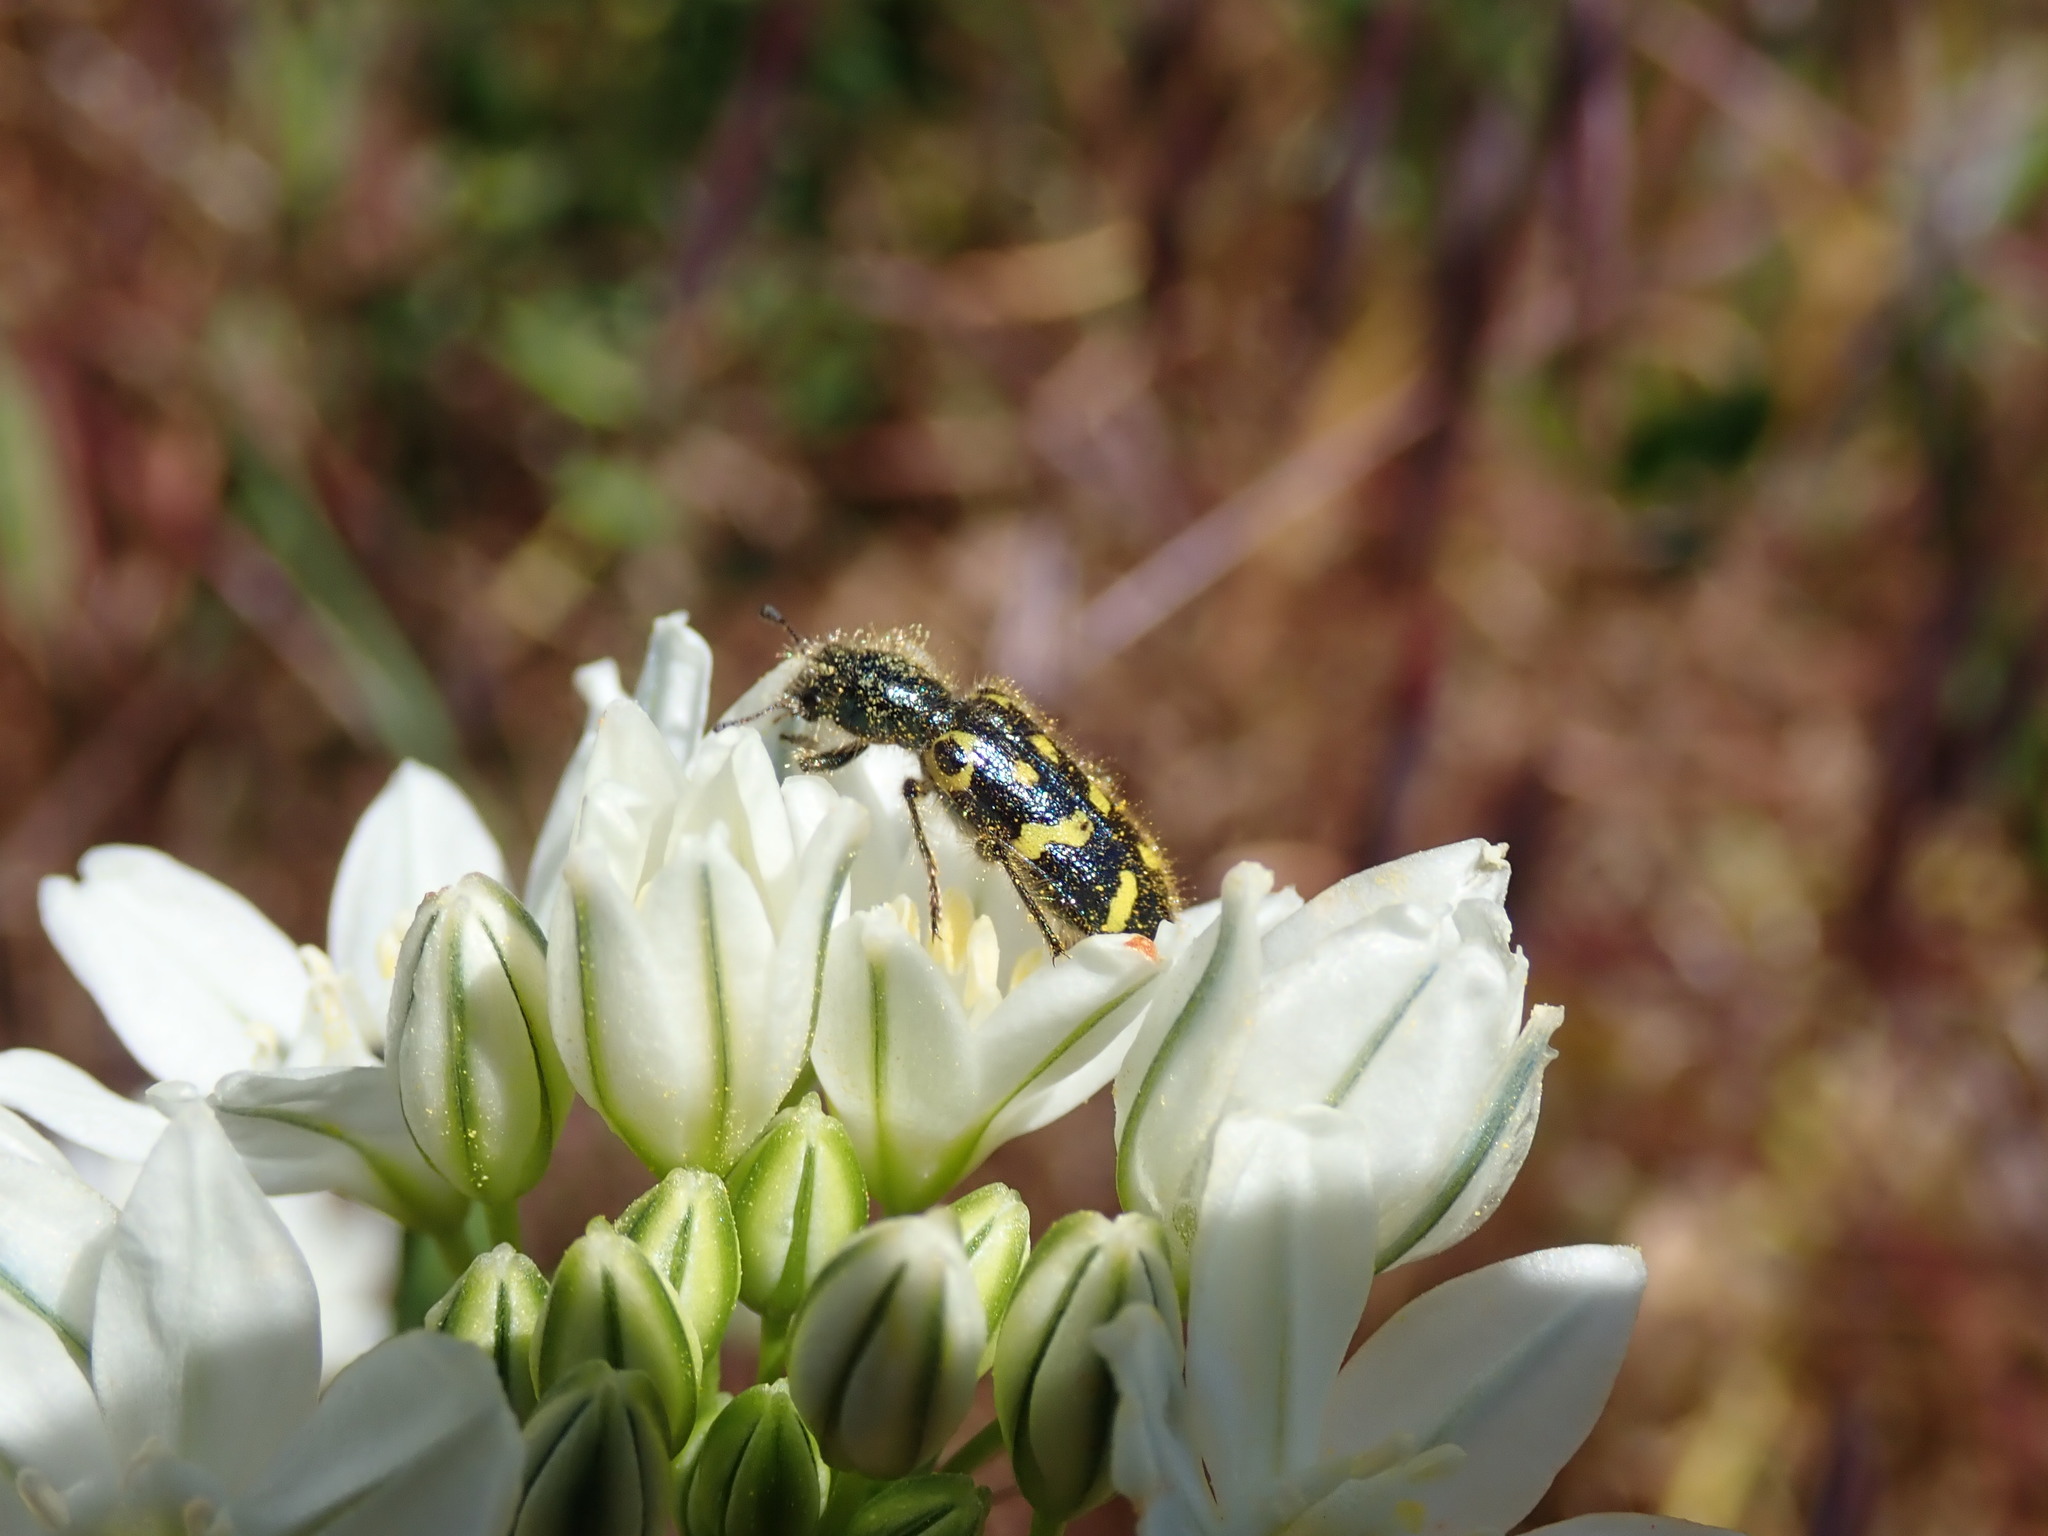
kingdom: Animalia
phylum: Arthropoda
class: Insecta
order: Coleoptera
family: Cleridae
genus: Trichodes
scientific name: Trichodes ornatus
